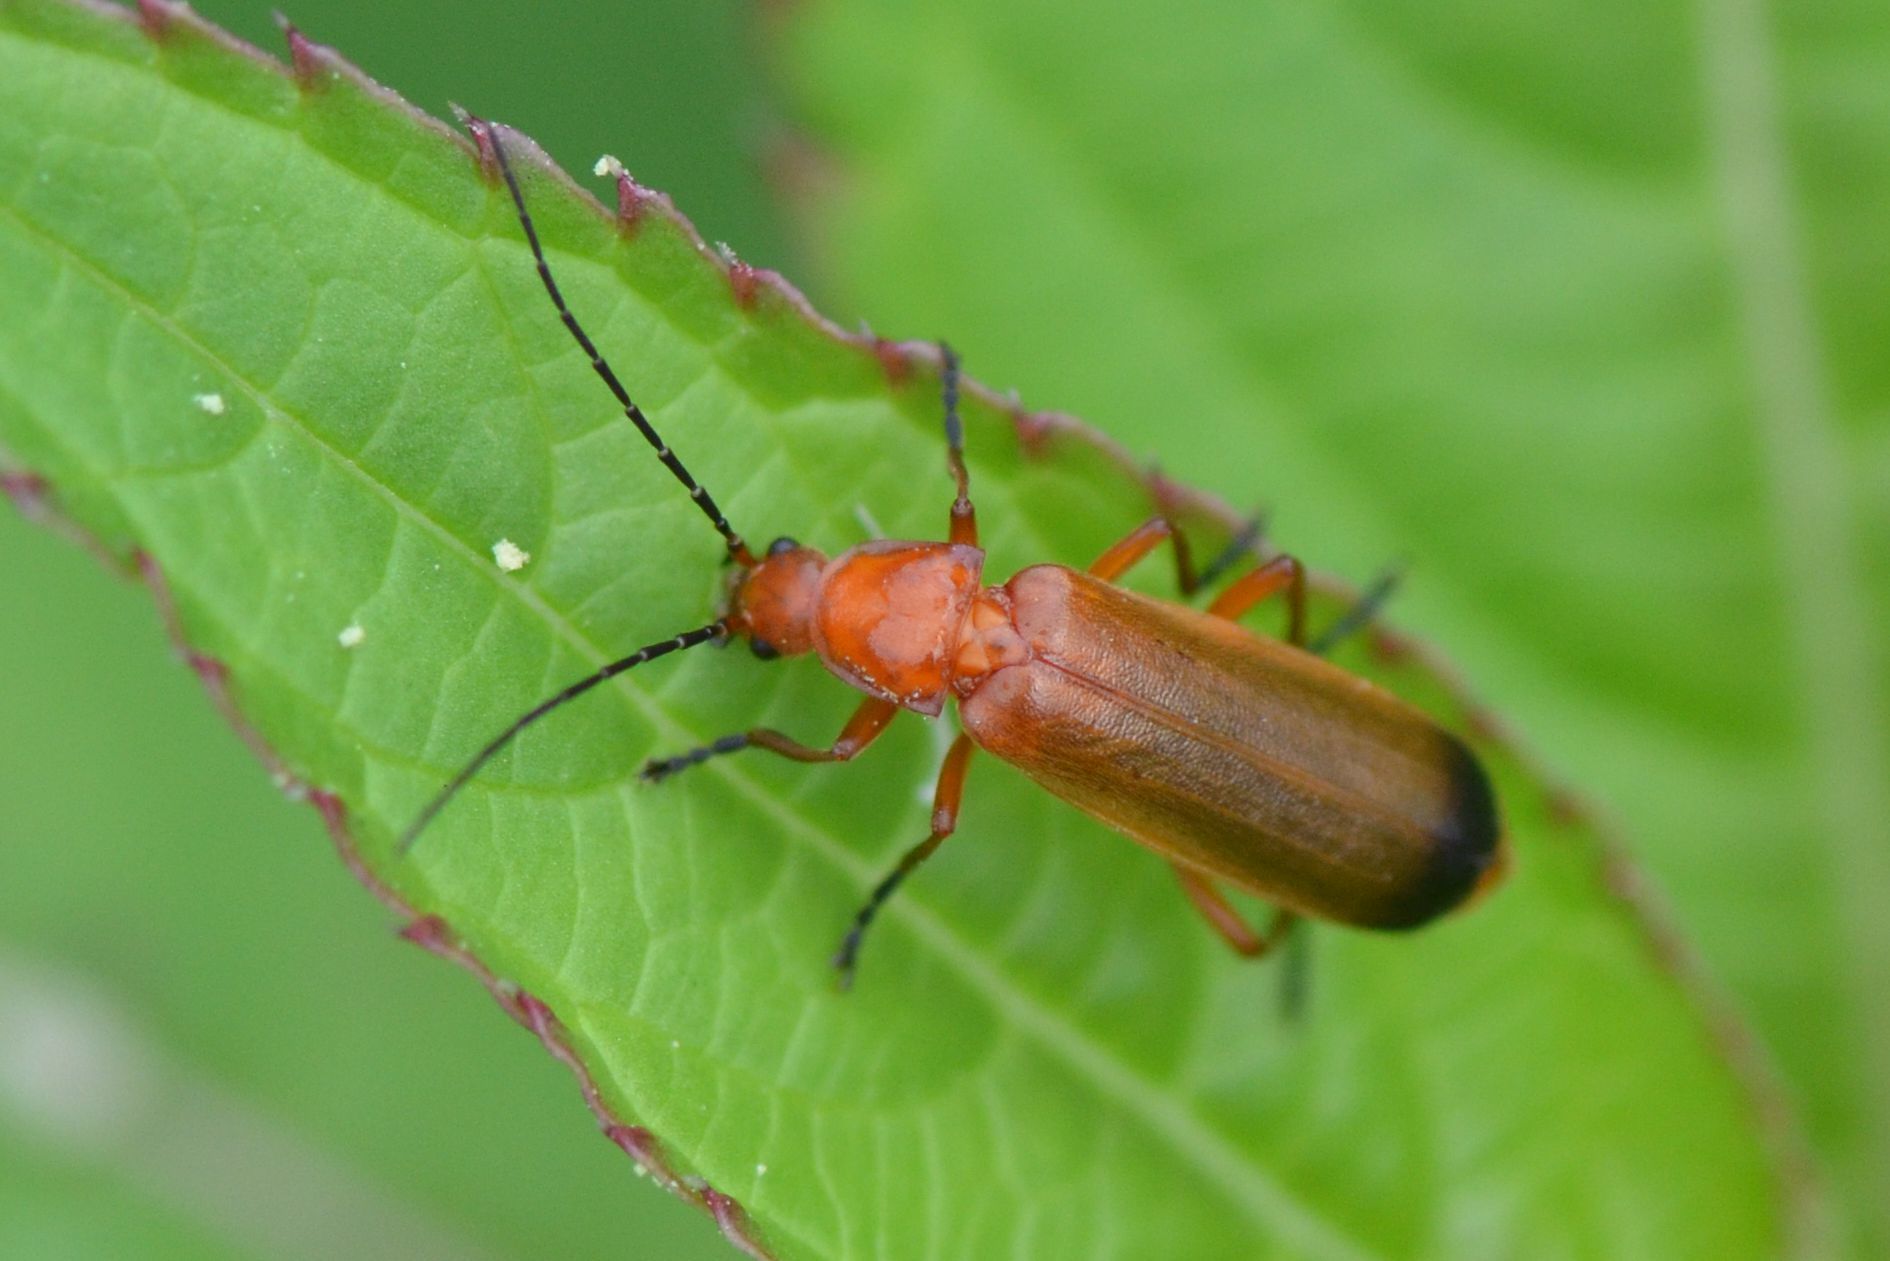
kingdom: Animalia
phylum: Arthropoda
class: Insecta
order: Coleoptera
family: Cantharidae
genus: Rhagonycha
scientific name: Rhagonycha fulva
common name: Common red soldier beetle
